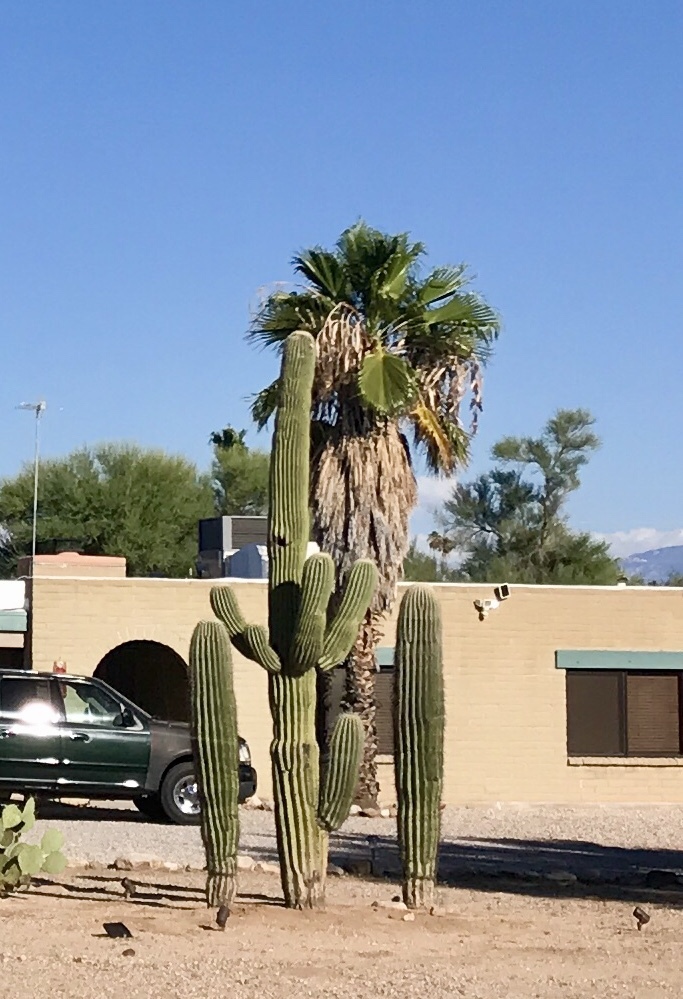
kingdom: Plantae
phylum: Tracheophyta
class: Magnoliopsida
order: Caryophyllales
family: Cactaceae
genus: Carnegiea
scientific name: Carnegiea gigantea
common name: Saguaro
